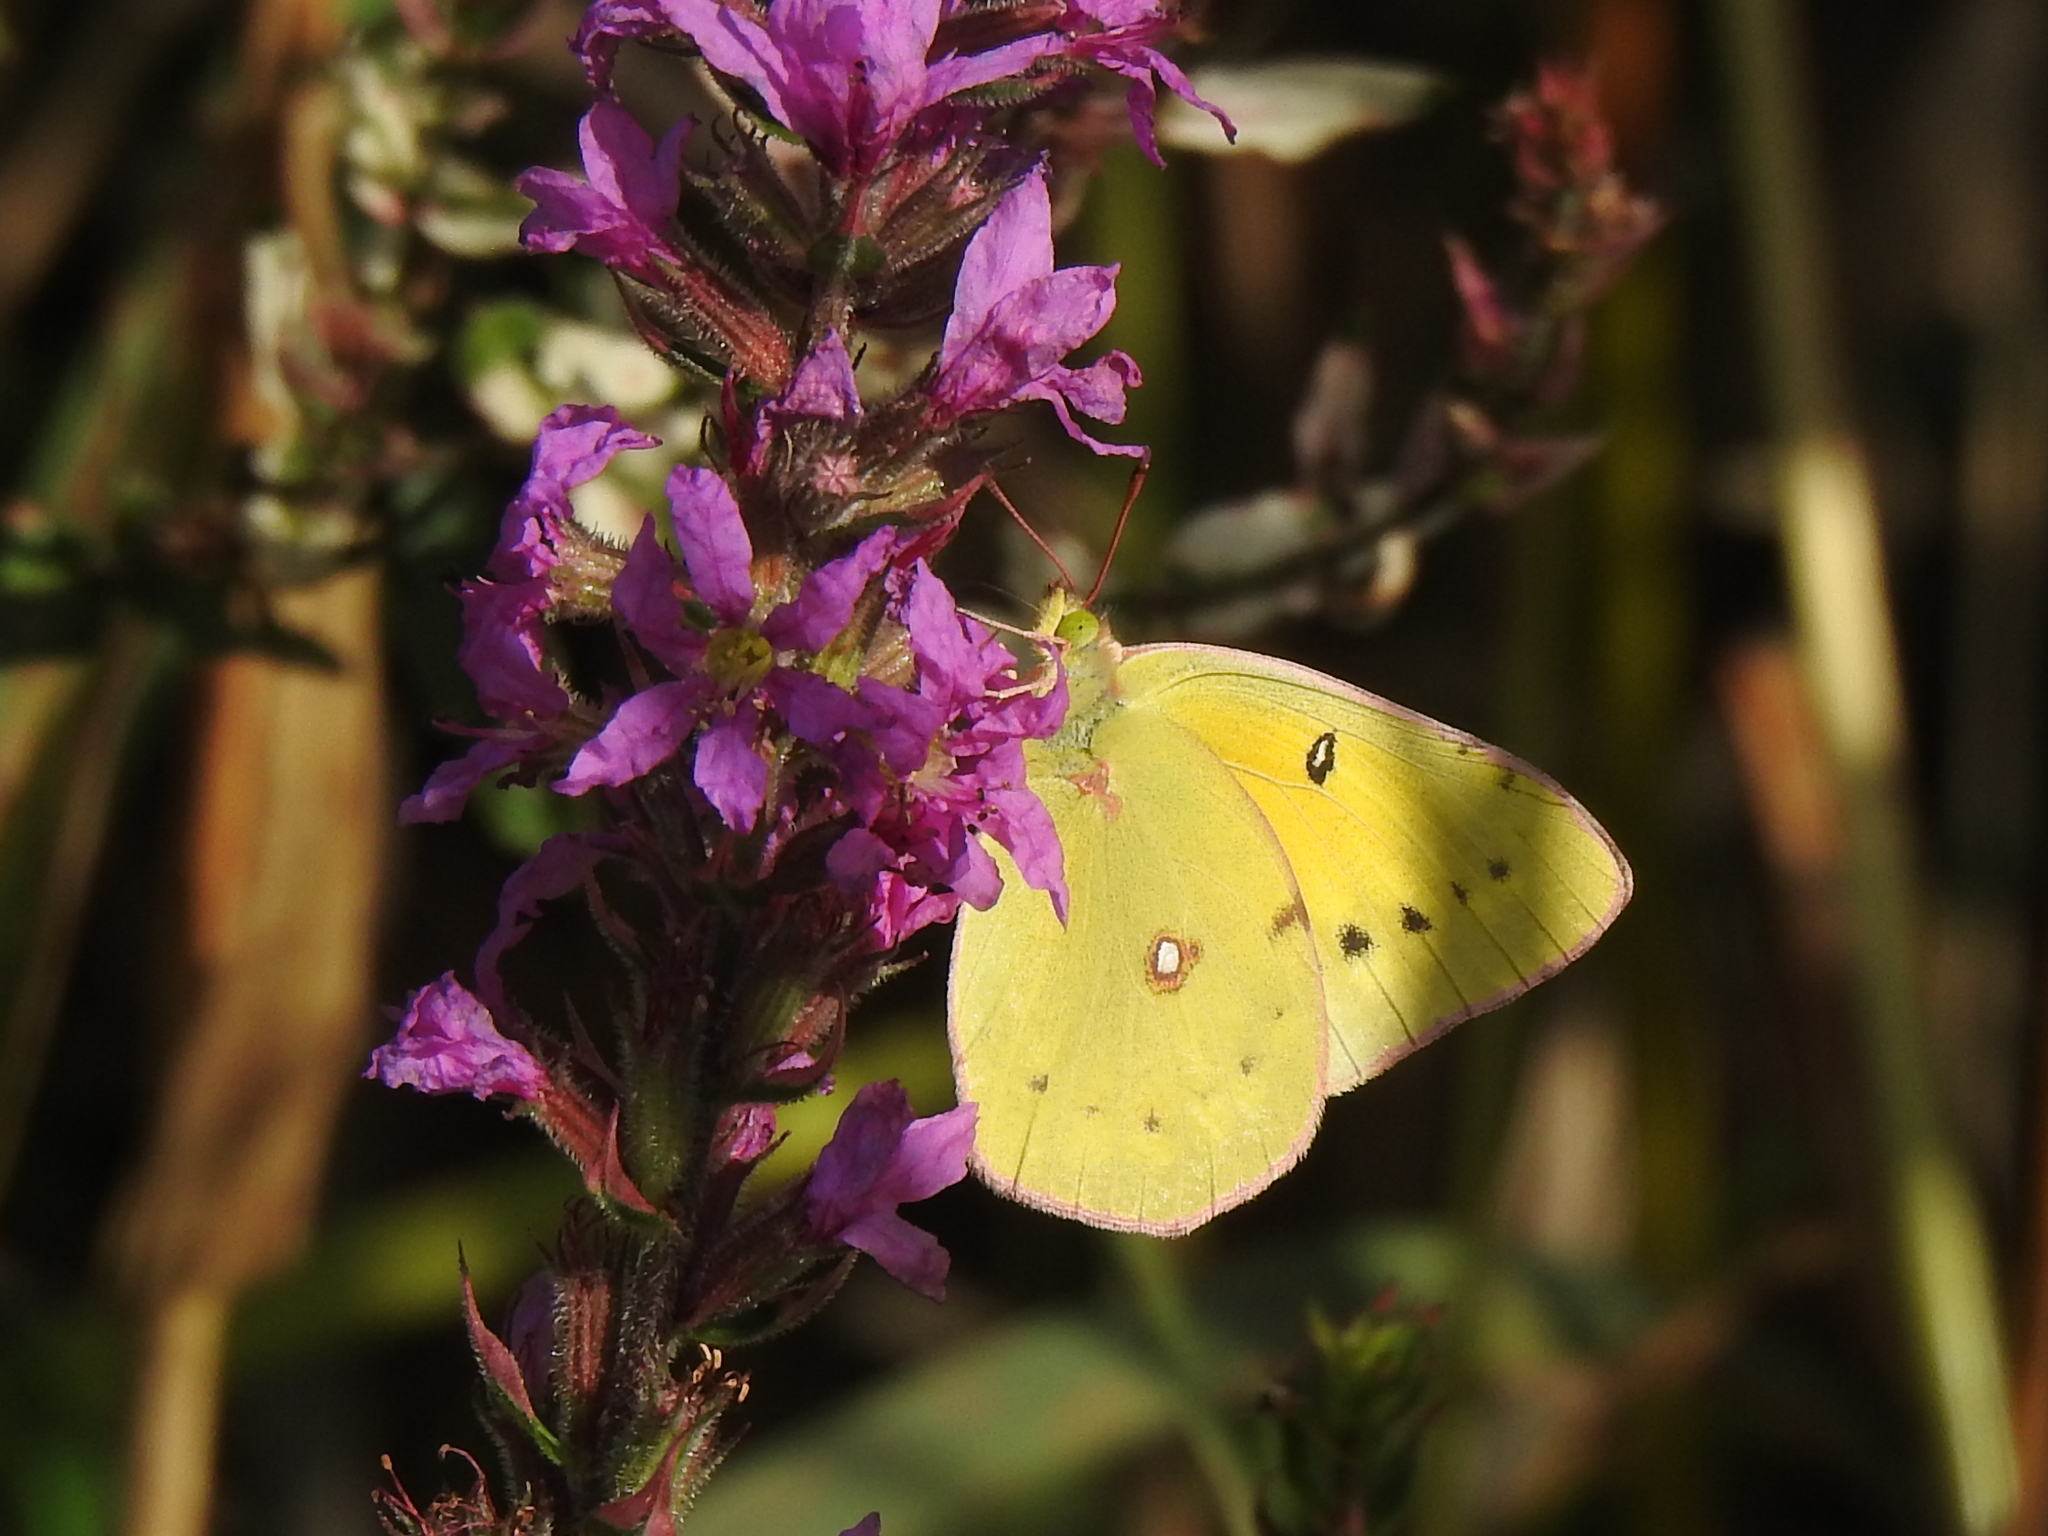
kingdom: Animalia
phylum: Arthropoda
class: Insecta
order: Lepidoptera
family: Pieridae
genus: Colias
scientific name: Colias eurytheme
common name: Alfalfa butterfly
